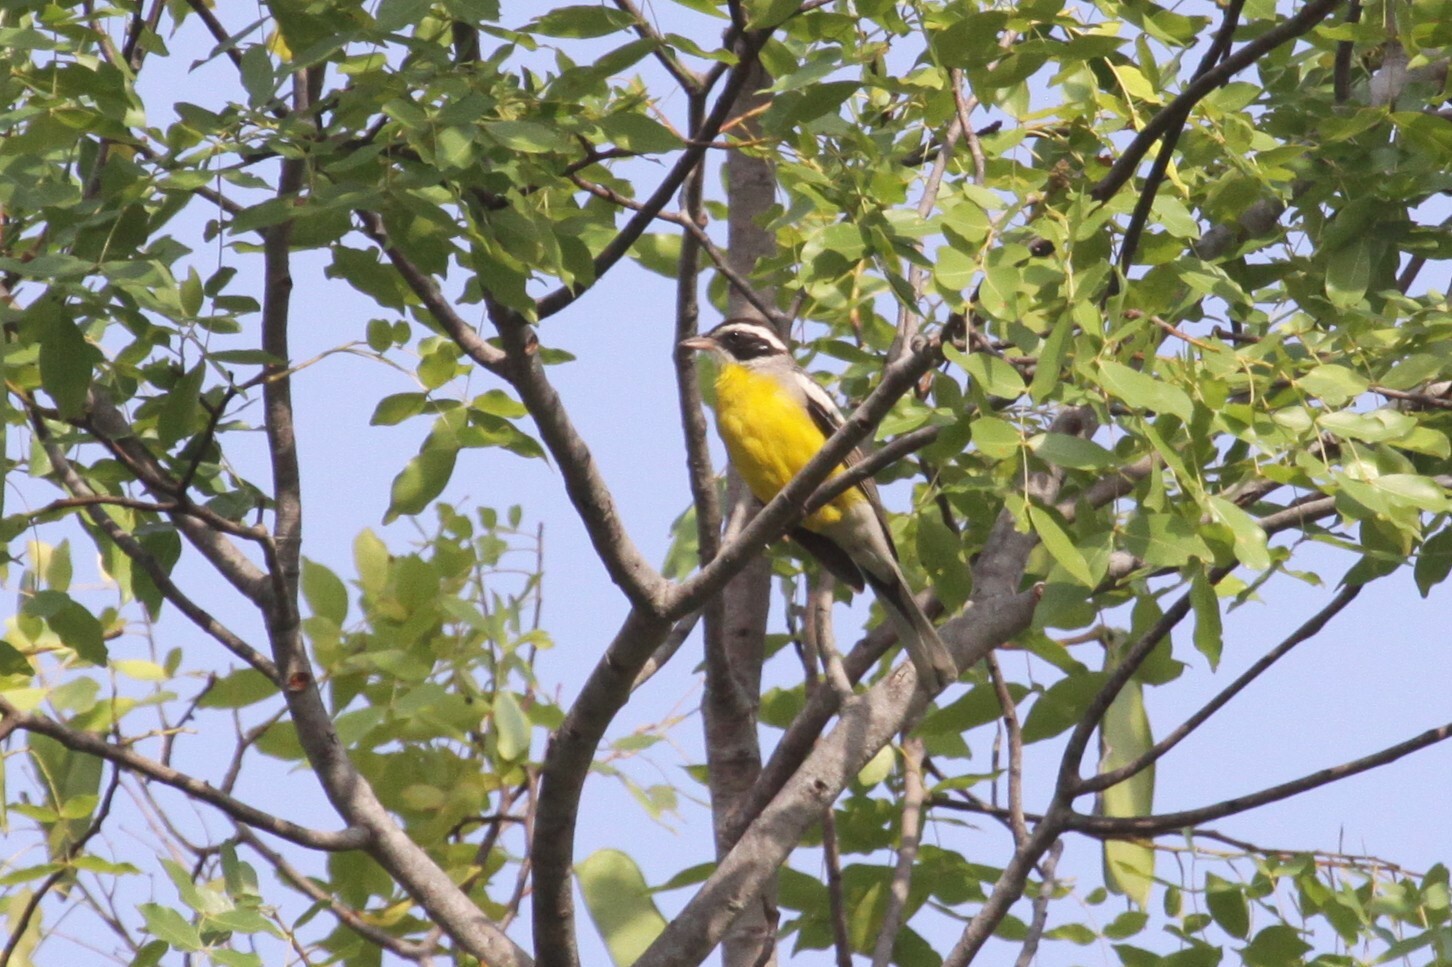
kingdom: Animalia
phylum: Chordata
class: Aves
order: Passeriformes
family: Emberizidae
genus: Emberiza
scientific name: Emberiza cabanisi
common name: Cabanis's bunting
